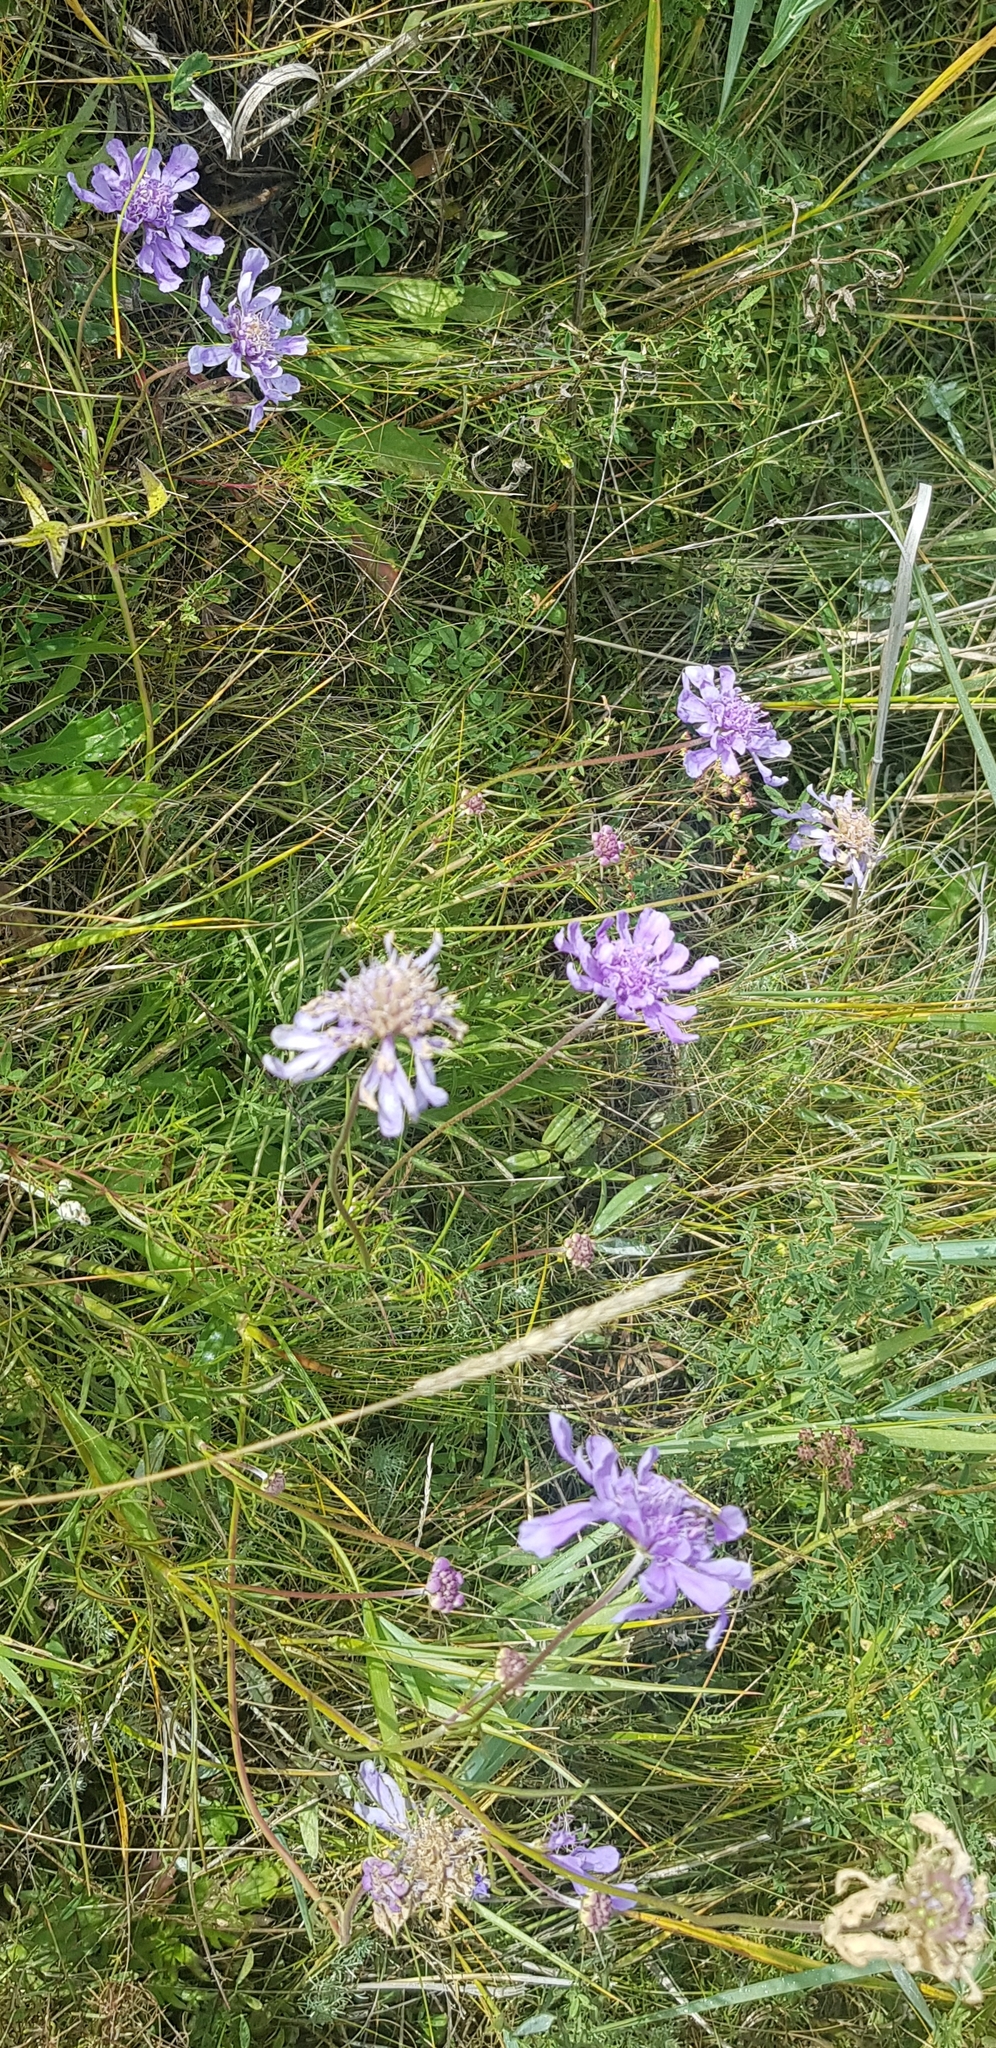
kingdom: Plantae
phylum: Tracheophyta
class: Magnoliopsida
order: Dipsacales
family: Caprifoliaceae
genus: Scabiosa
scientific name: Scabiosa comosa
